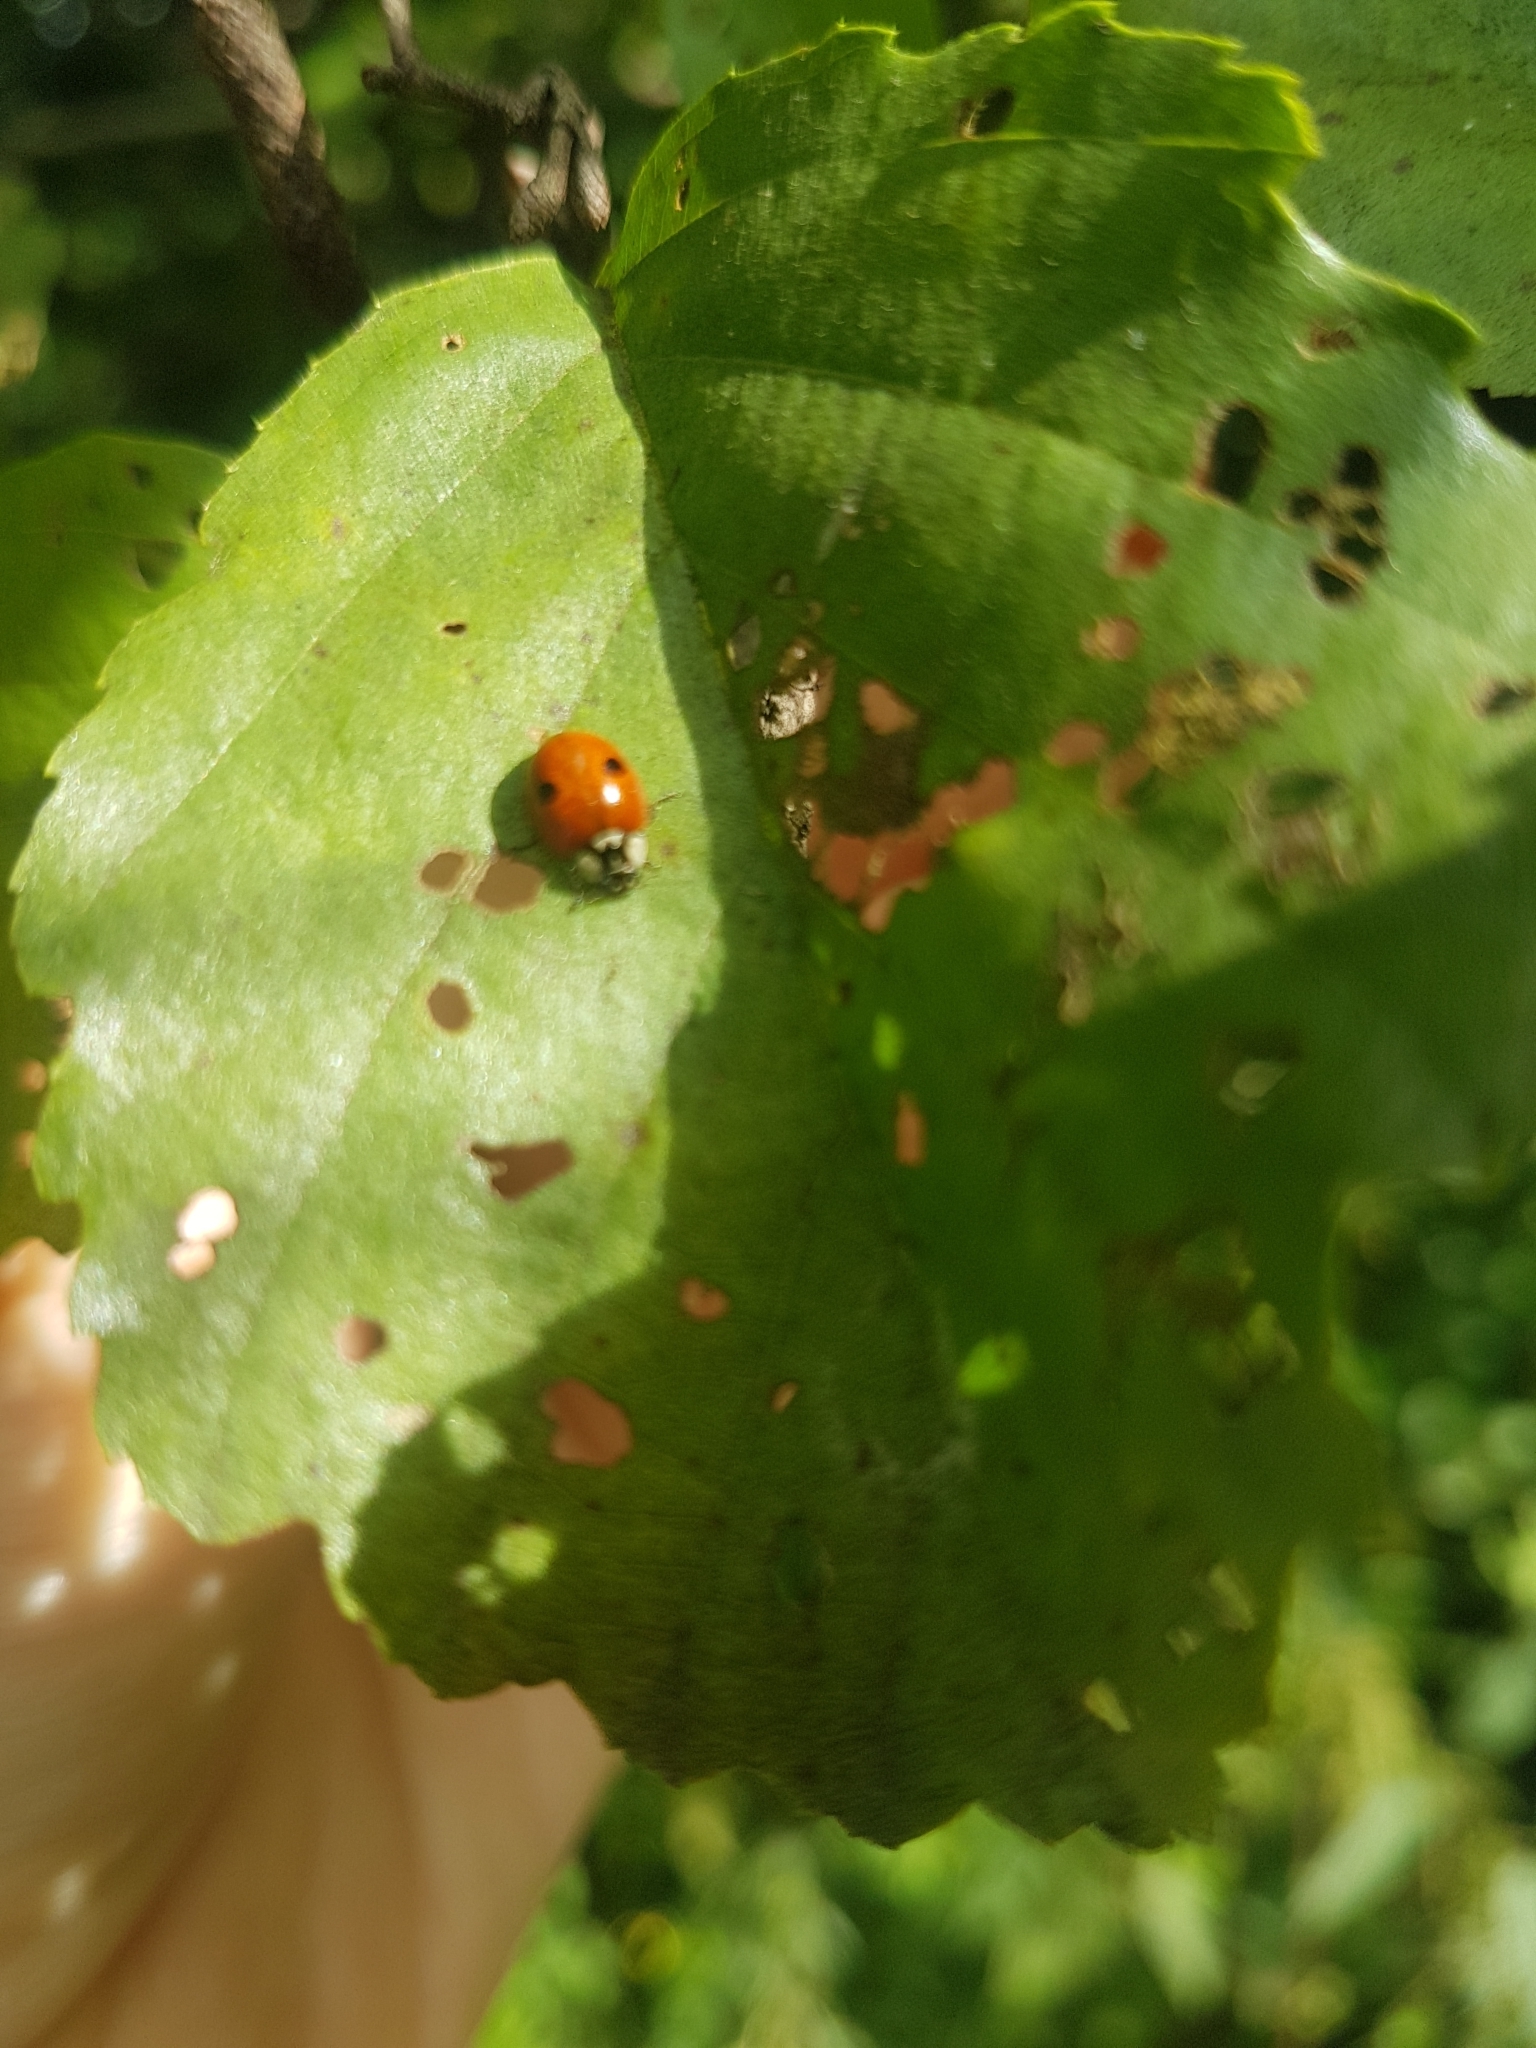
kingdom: Animalia
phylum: Arthropoda
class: Insecta
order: Coleoptera
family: Coccinellidae
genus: Adalia
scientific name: Adalia bipunctata
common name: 2-spot ladybird
